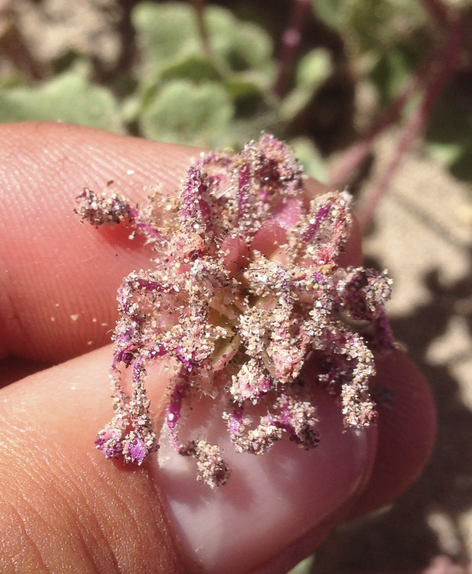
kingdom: Plantae
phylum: Tracheophyta
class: Magnoliopsida
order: Caryophyllales
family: Nyctaginaceae
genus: Abronia
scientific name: Abronia villosa
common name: Desert sand-verbena
